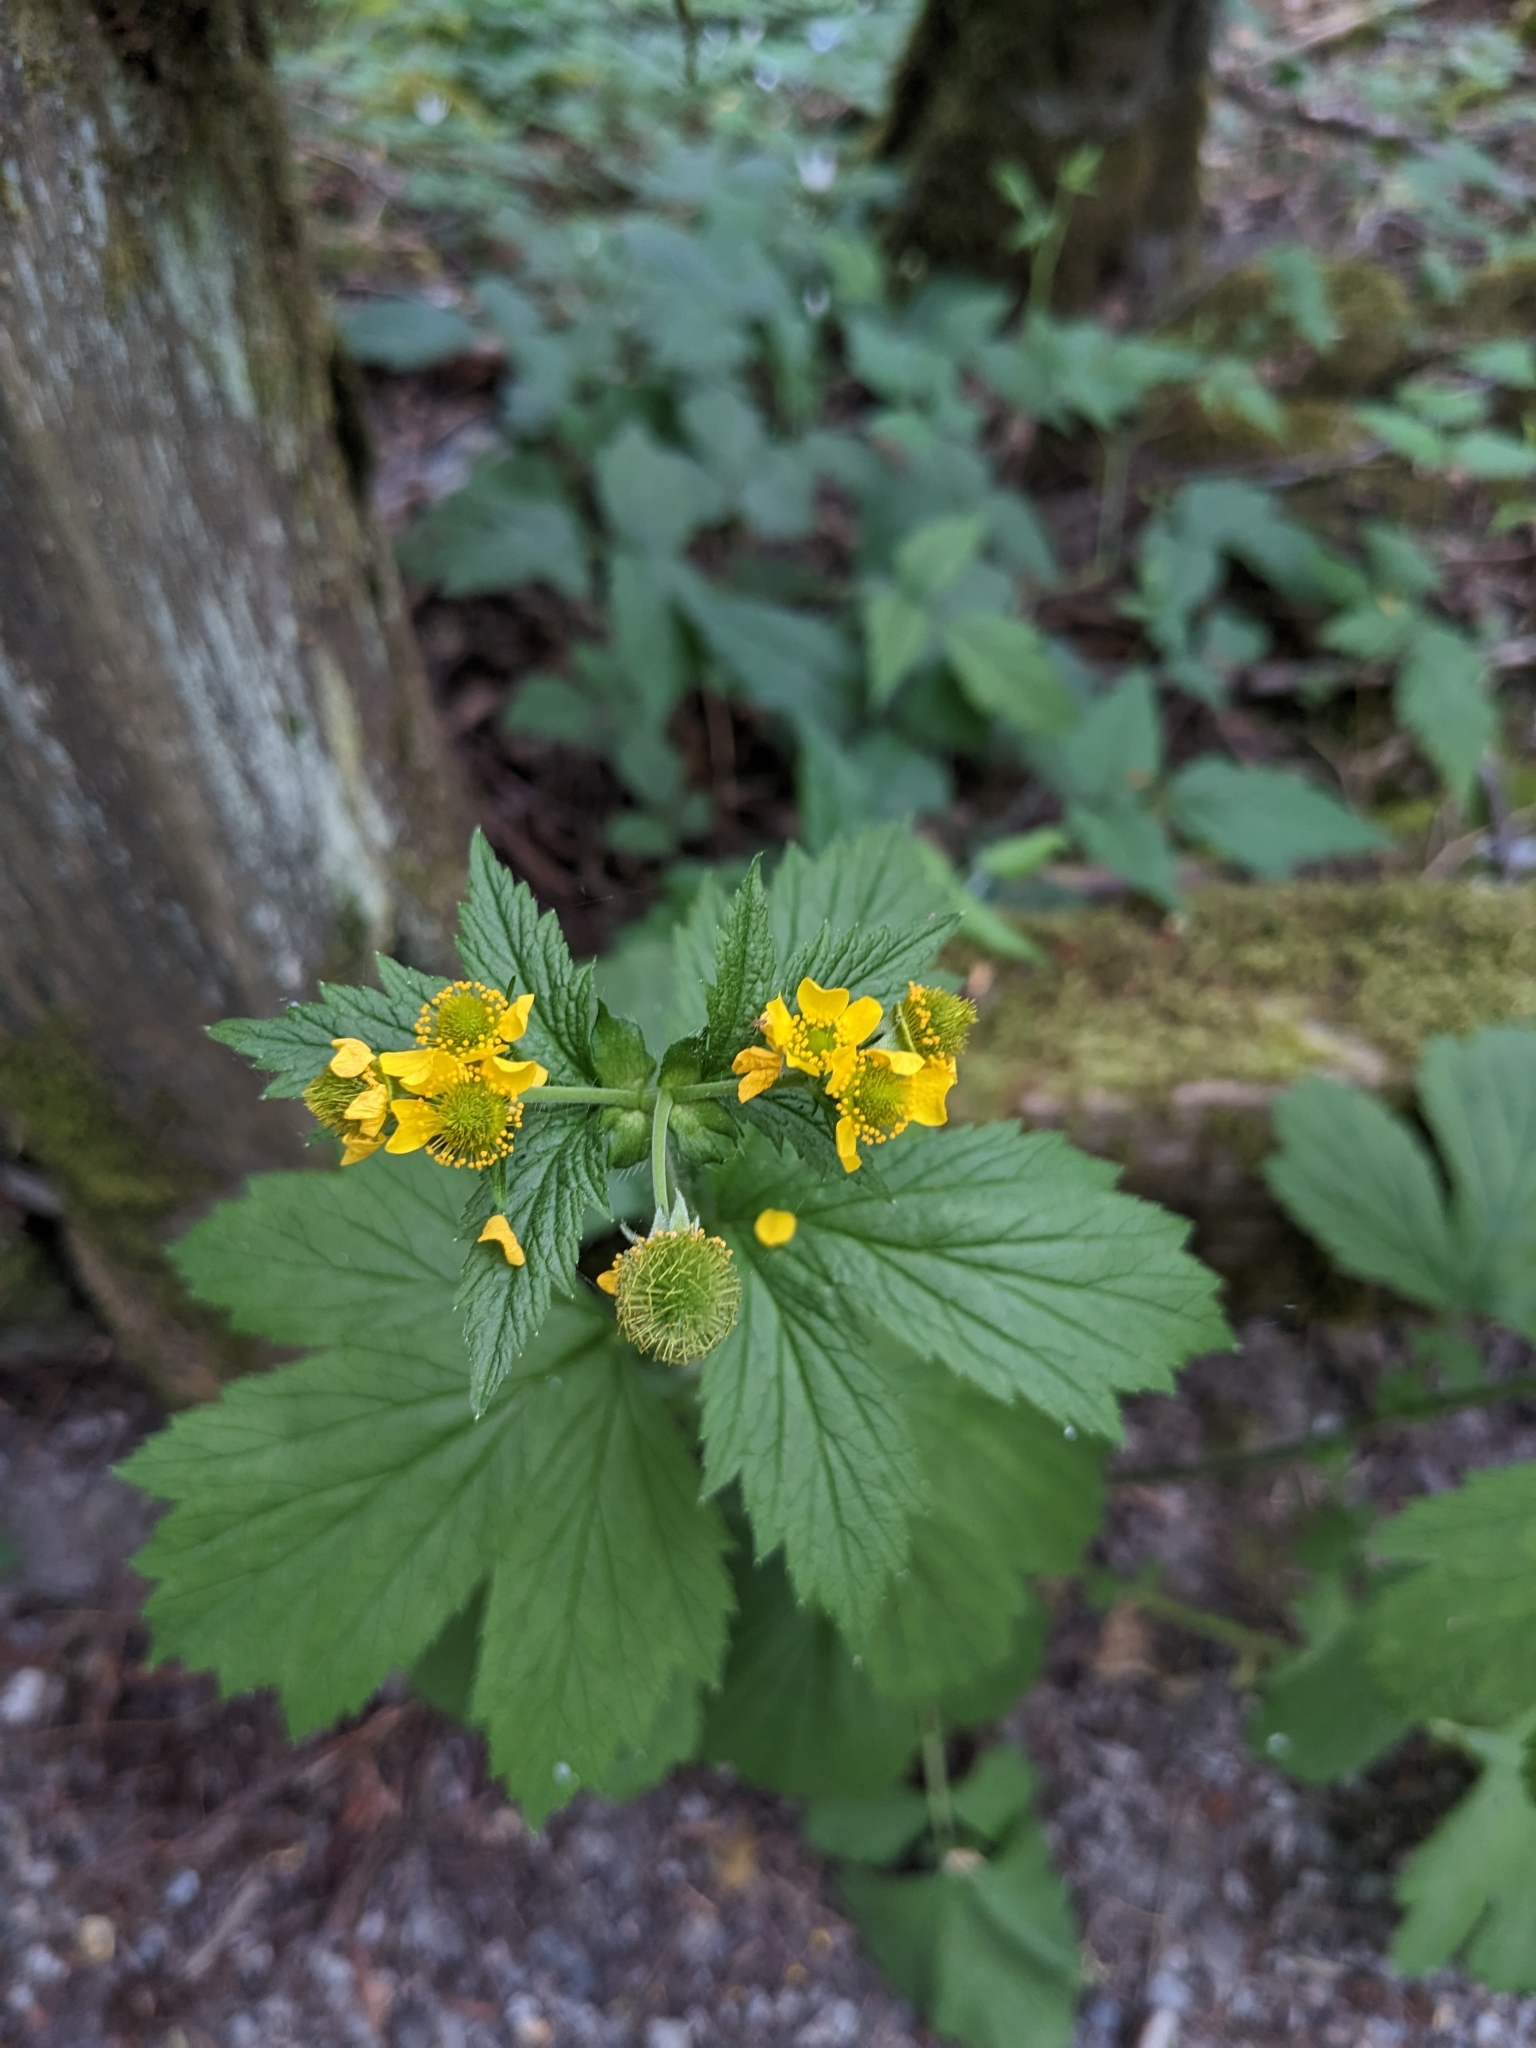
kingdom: Plantae
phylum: Tracheophyta
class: Magnoliopsida
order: Rosales
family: Rosaceae
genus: Geum
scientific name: Geum macrophyllum
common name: Large-leaved avens
